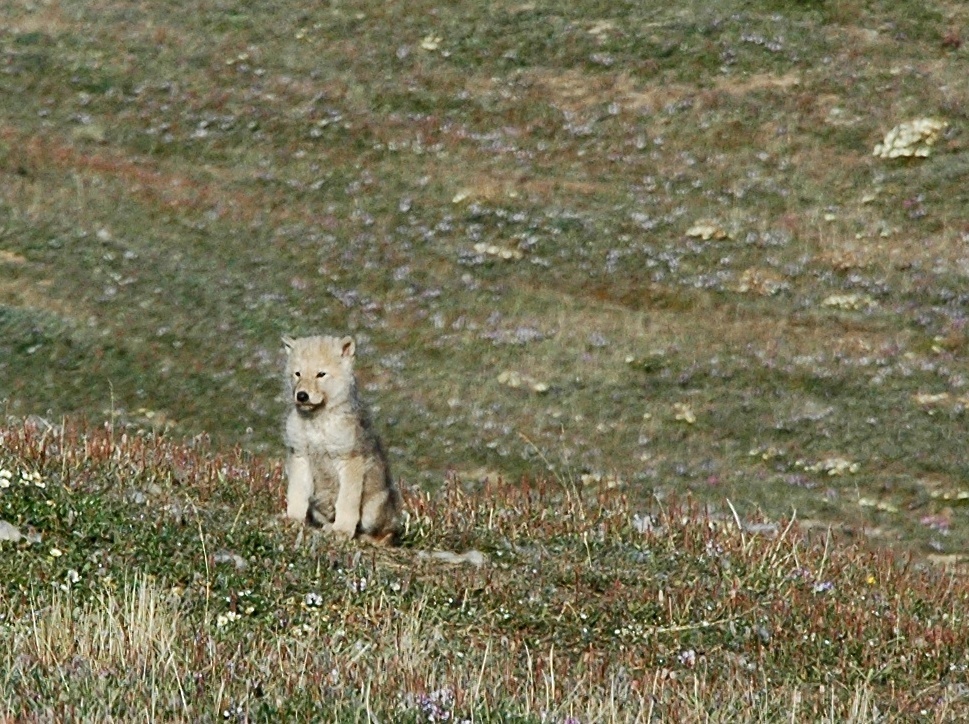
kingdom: Animalia
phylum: Chordata
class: Mammalia
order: Carnivora
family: Canidae
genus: Canis
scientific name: Canis lupus
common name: Gray wolf
